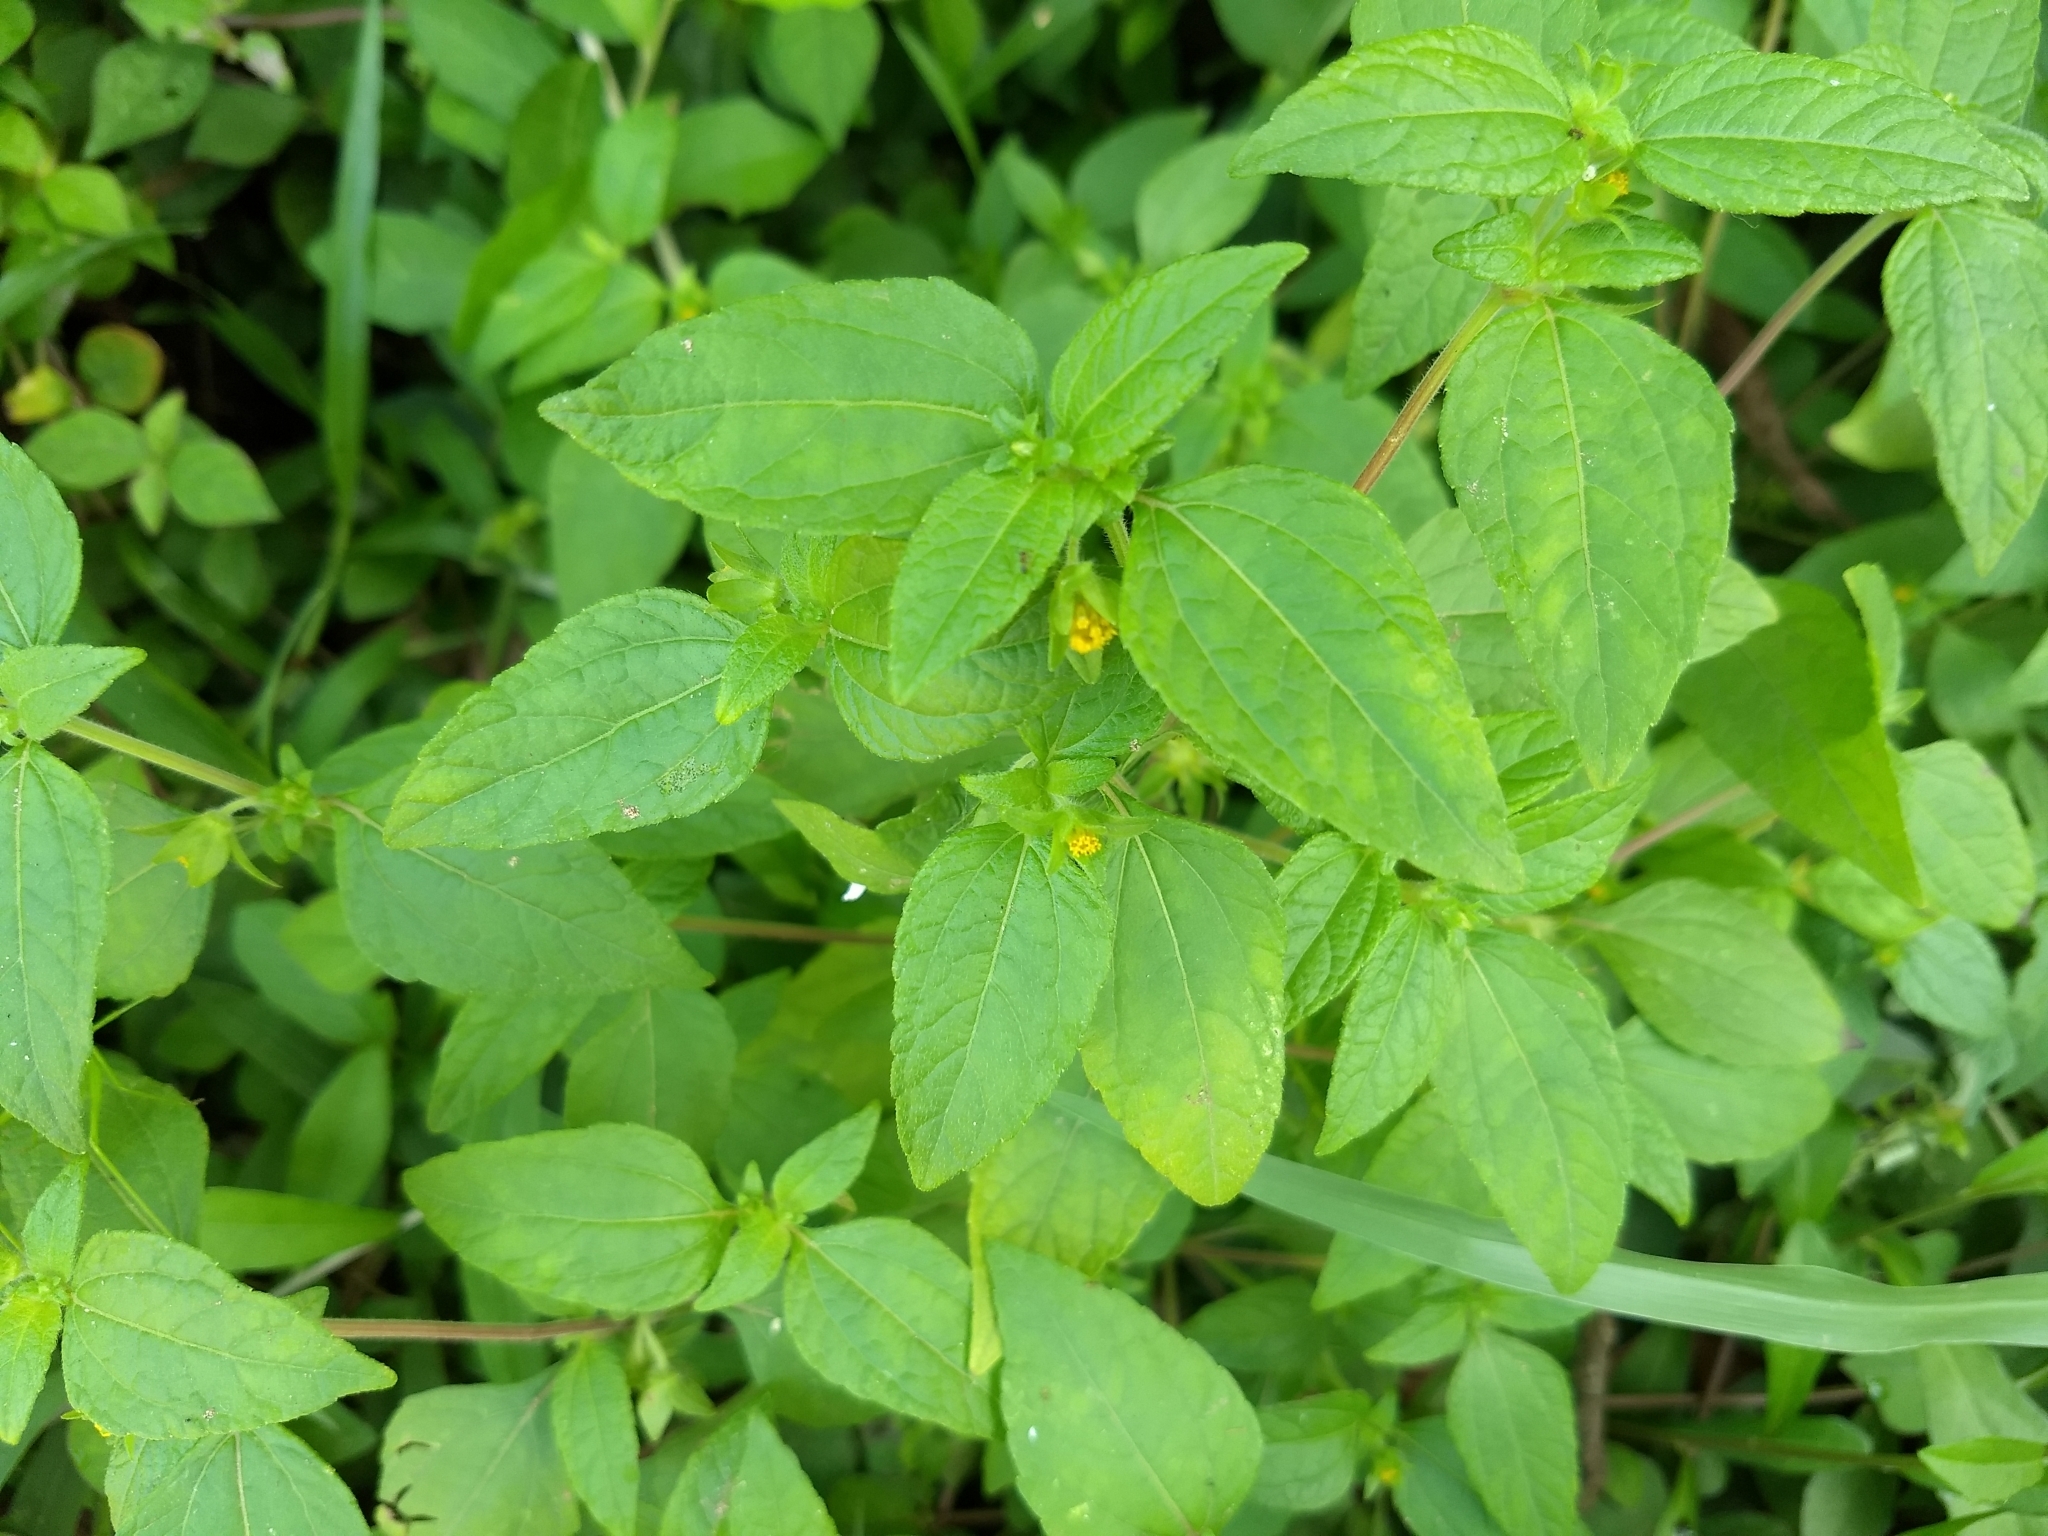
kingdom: Plantae
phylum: Tracheophyta
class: Magnoliopsida
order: Asterales
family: Asteraceae
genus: Eleutheranthera
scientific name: Eleutheranthera ruderalis
